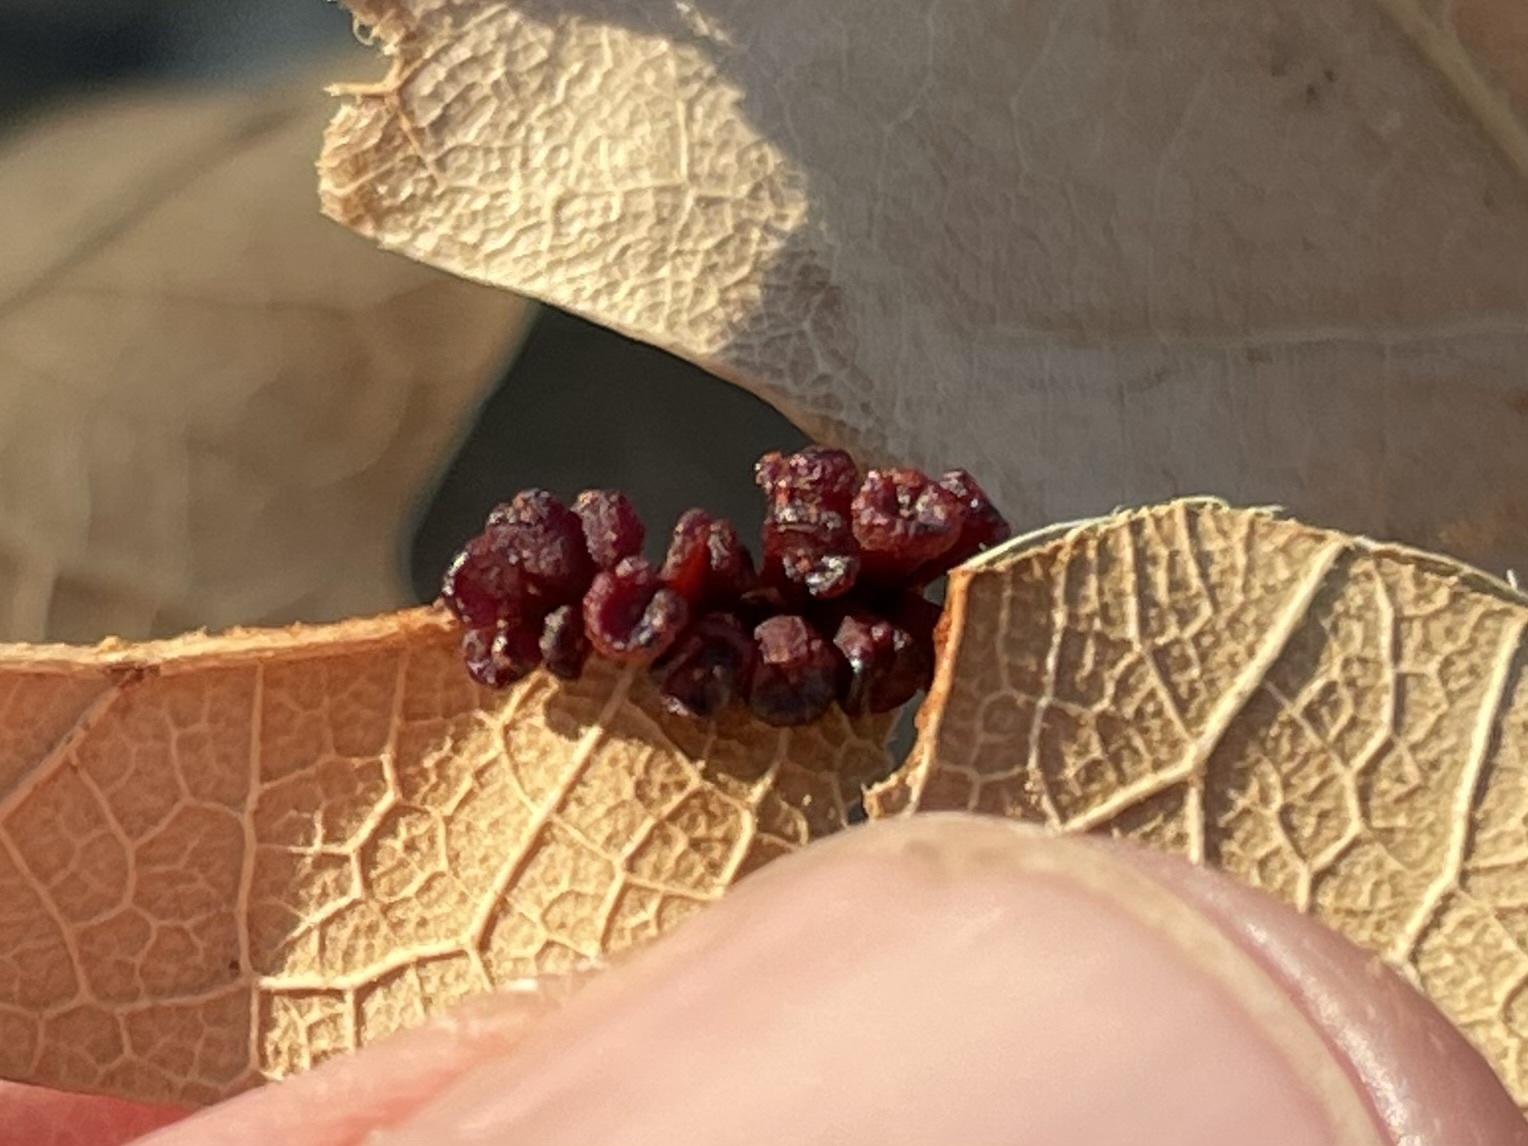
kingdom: Animalia
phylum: Arthropoda
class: Insecta
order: Hymenoptera
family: Cynipidae
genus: Andricus
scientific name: Andricus lustrans
